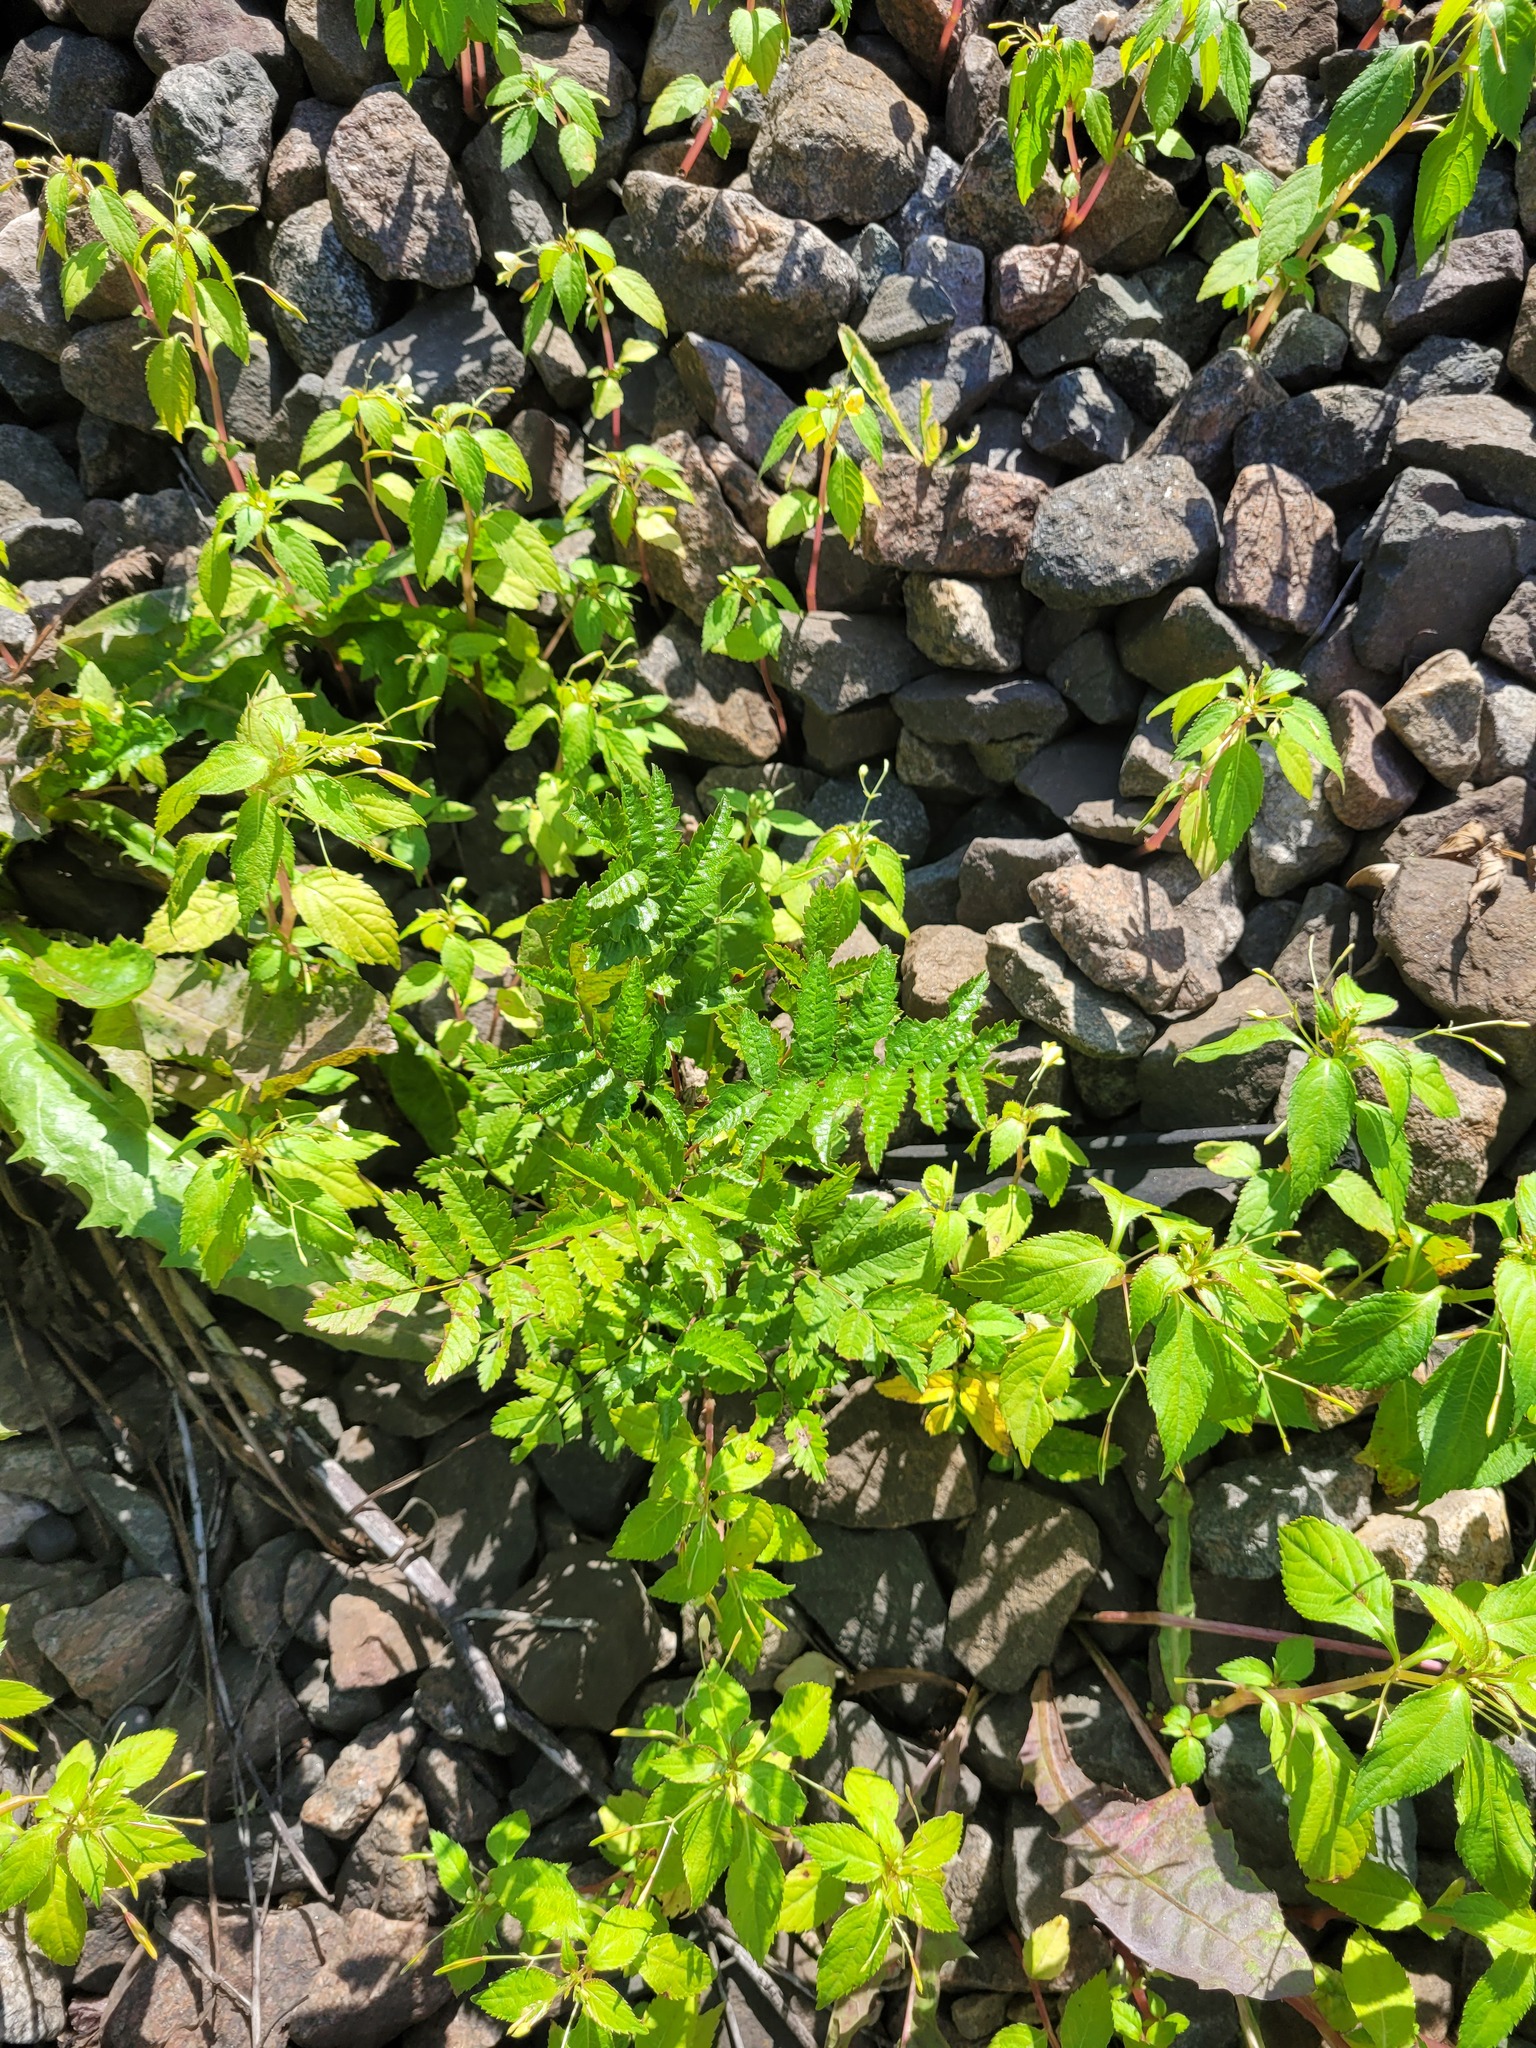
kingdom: Plantae
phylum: Tracheophyta
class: Magnoliopsida
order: Rosales
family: Rosaceae
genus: Sorbus
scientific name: Sorbus aucuparia
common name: Rowan
